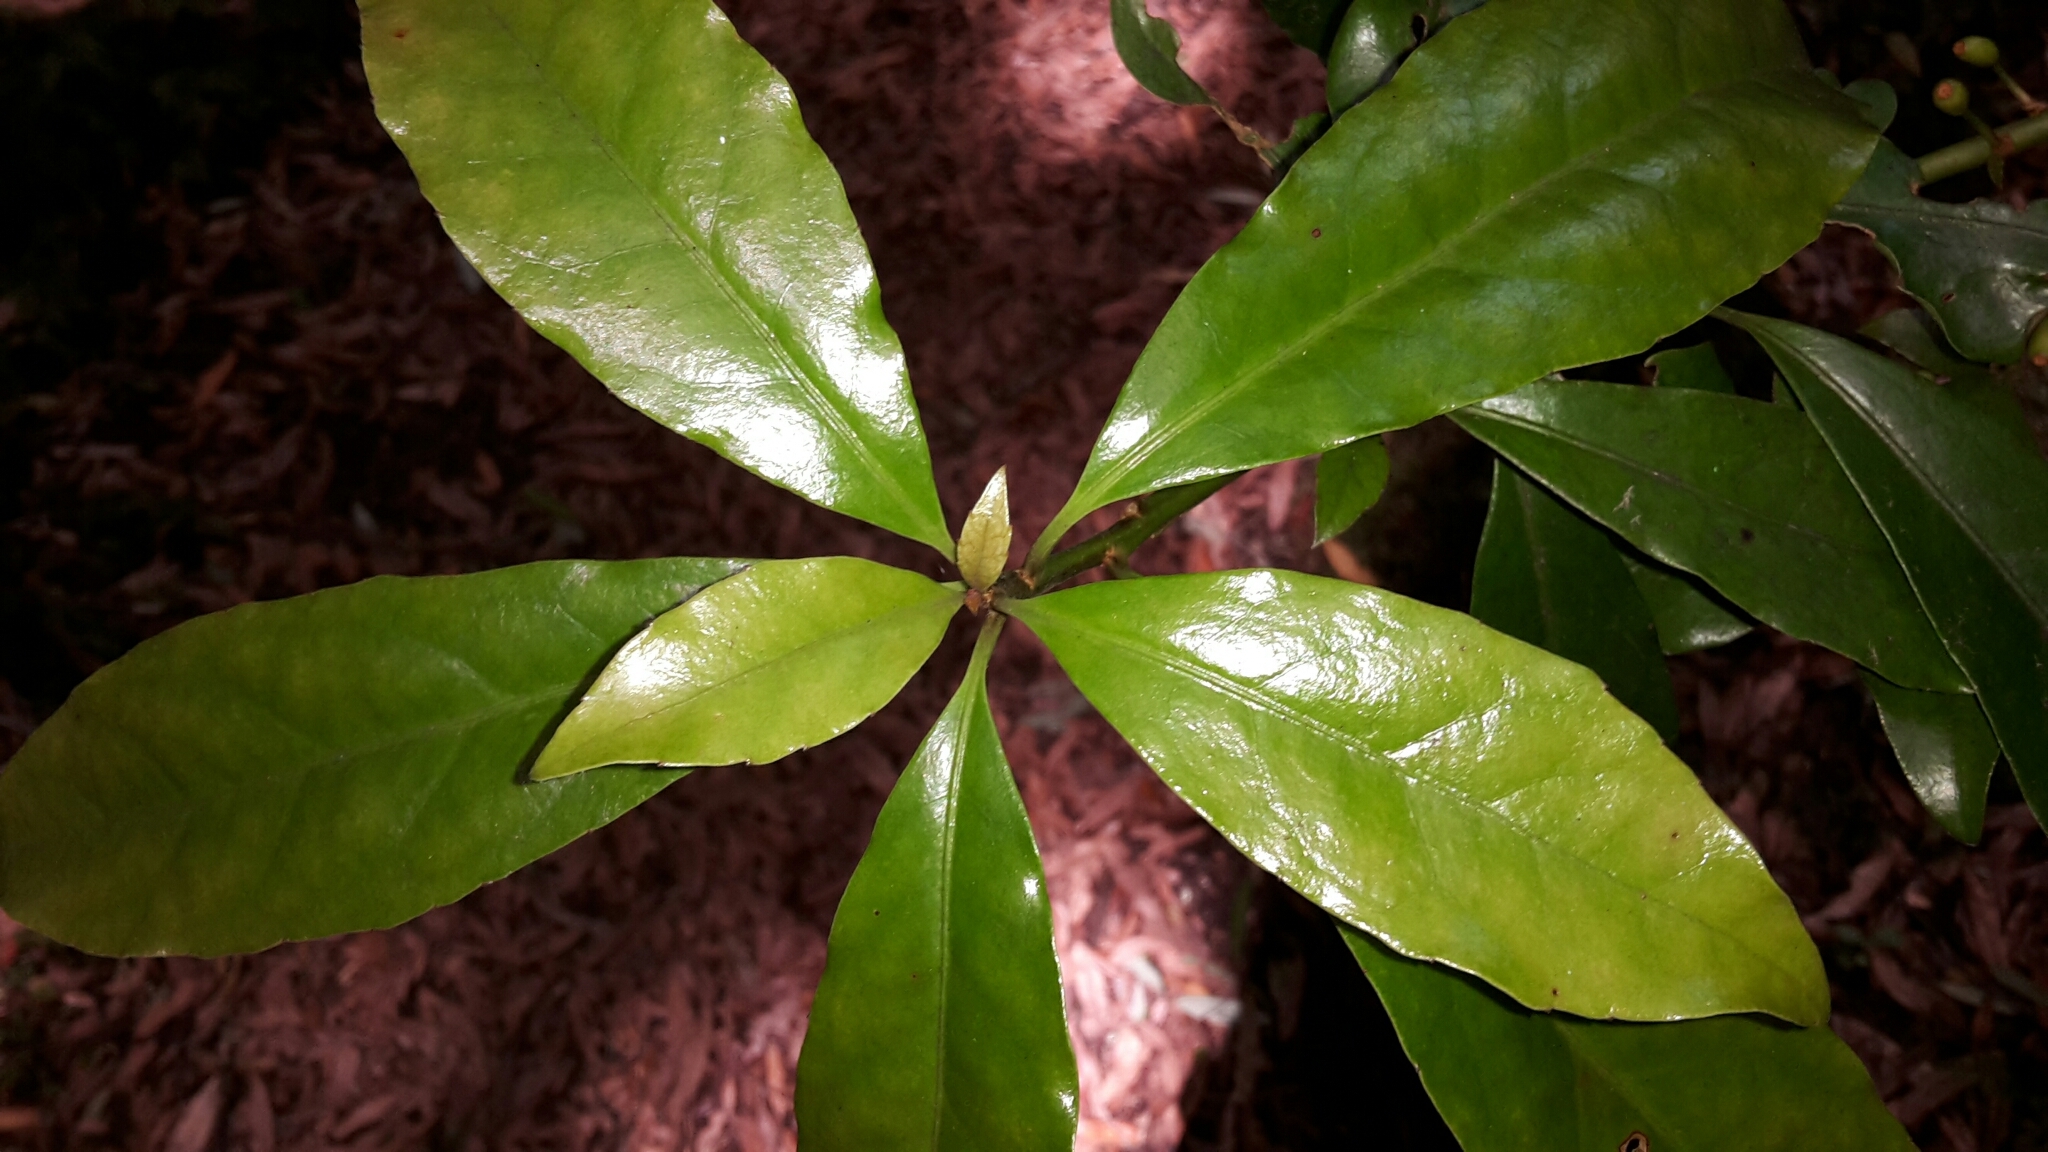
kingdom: Plantae
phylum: Tracheophyta
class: Magnoliopsida
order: Asterales
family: Alseuosmiaceae
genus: Alseuosmia
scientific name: Alseuosmia macrophylla
